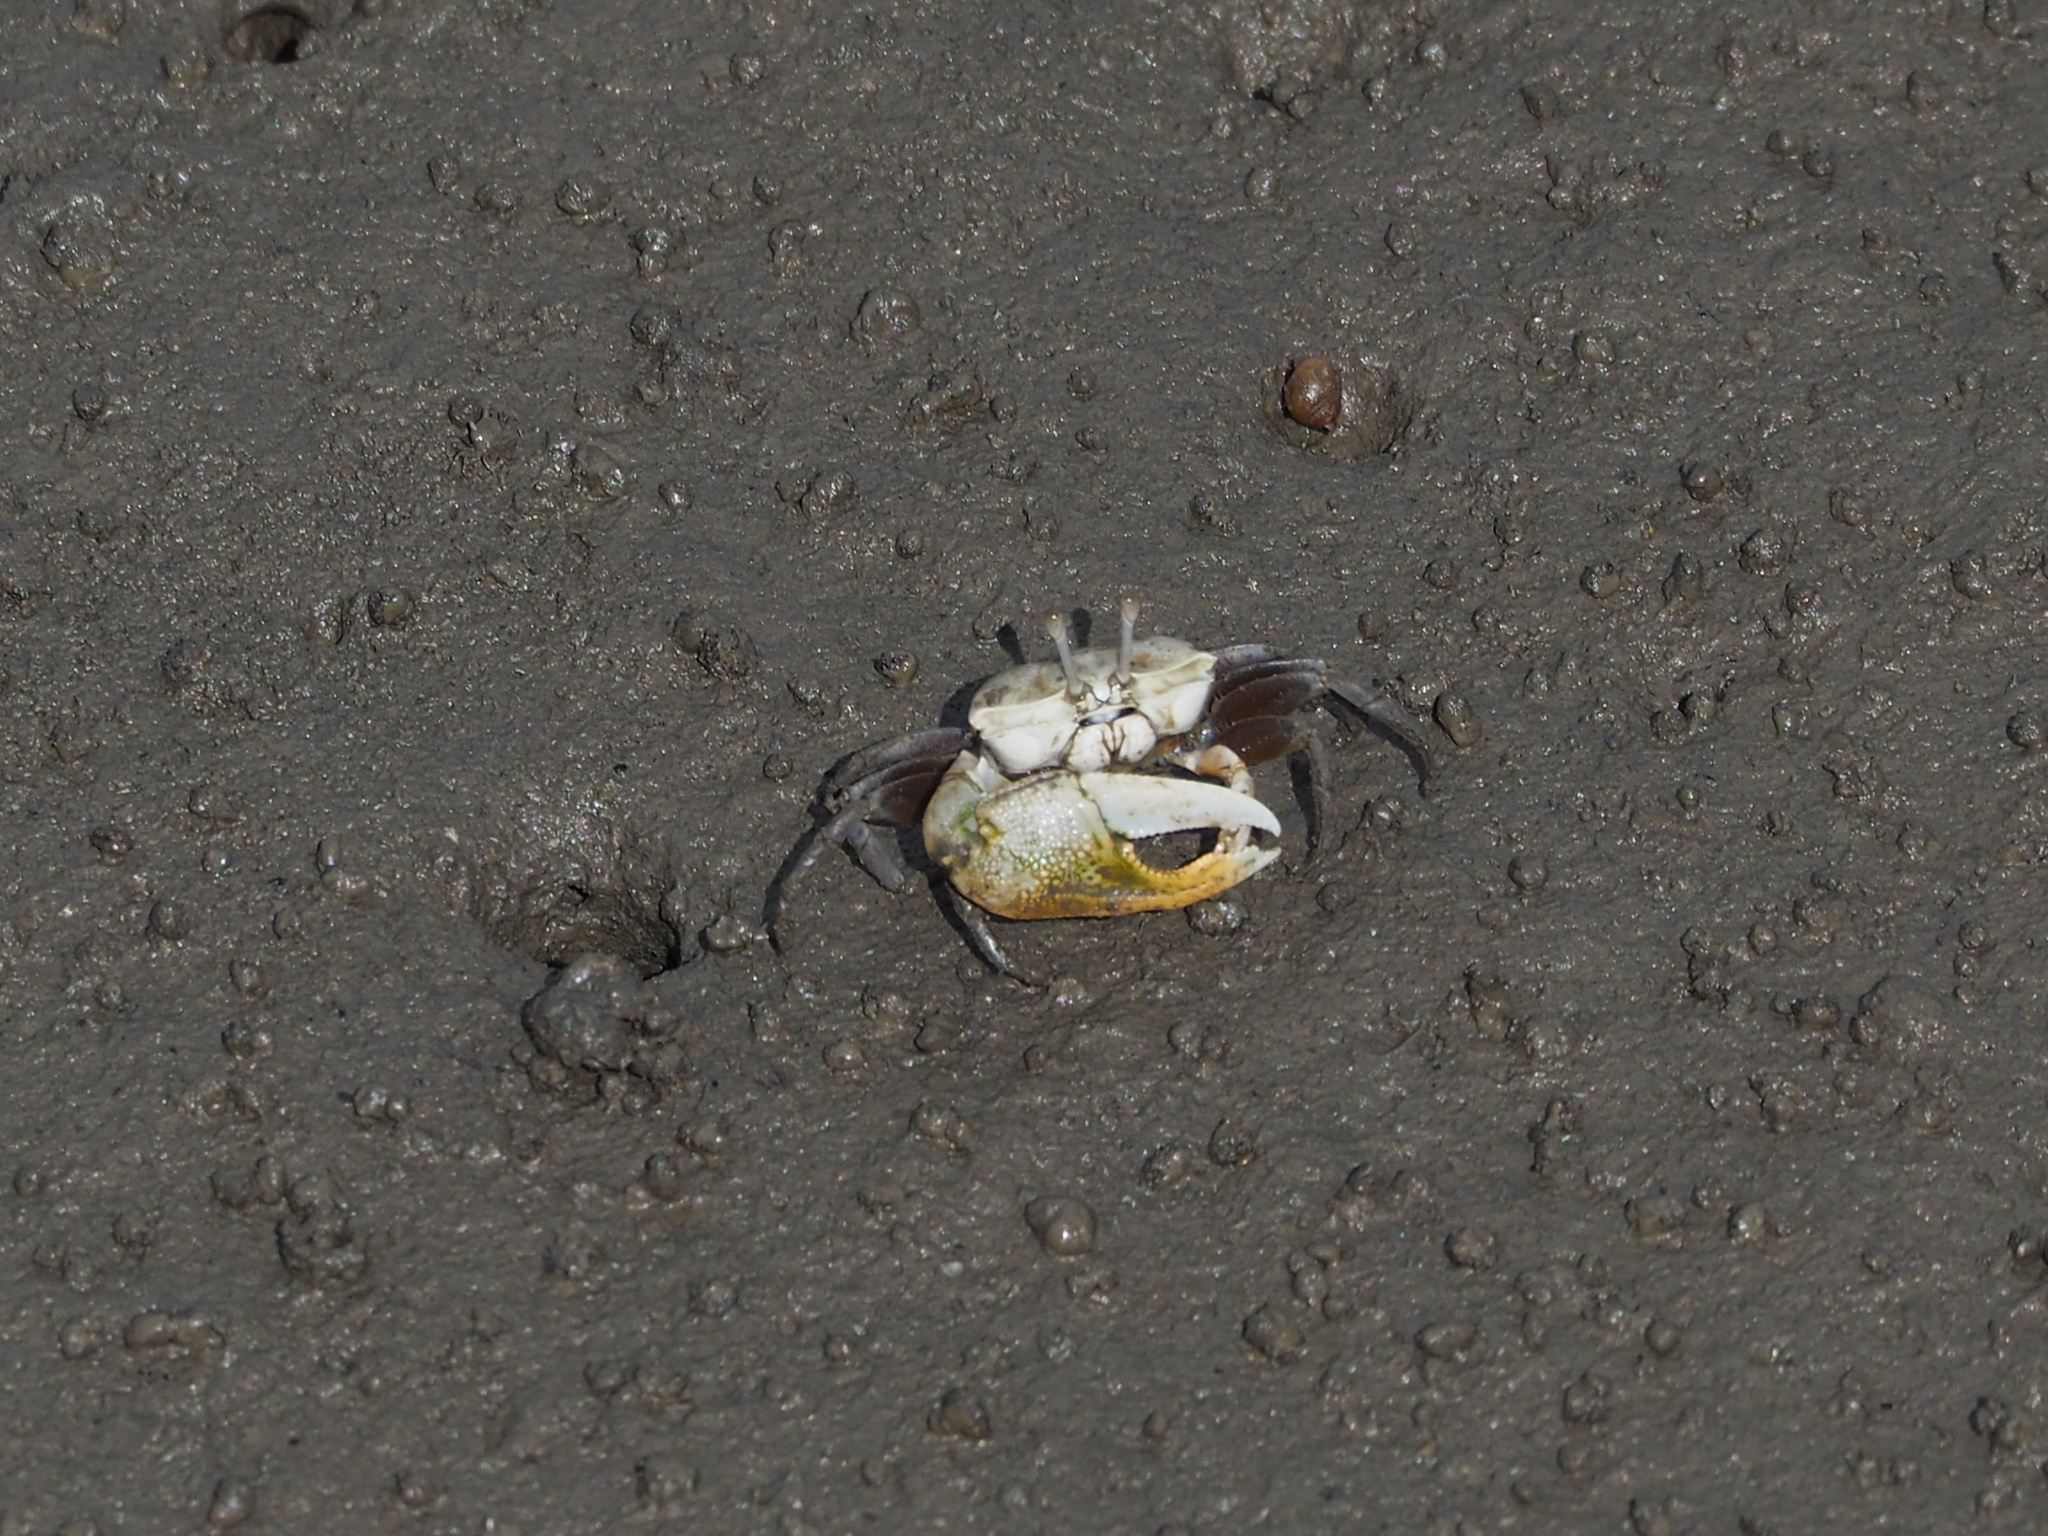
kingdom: Animalia
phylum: Arthropoda
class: Malacostraca
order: Decapoda
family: Ocypodidae
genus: Gelasimus
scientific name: Gelasimus borealis
